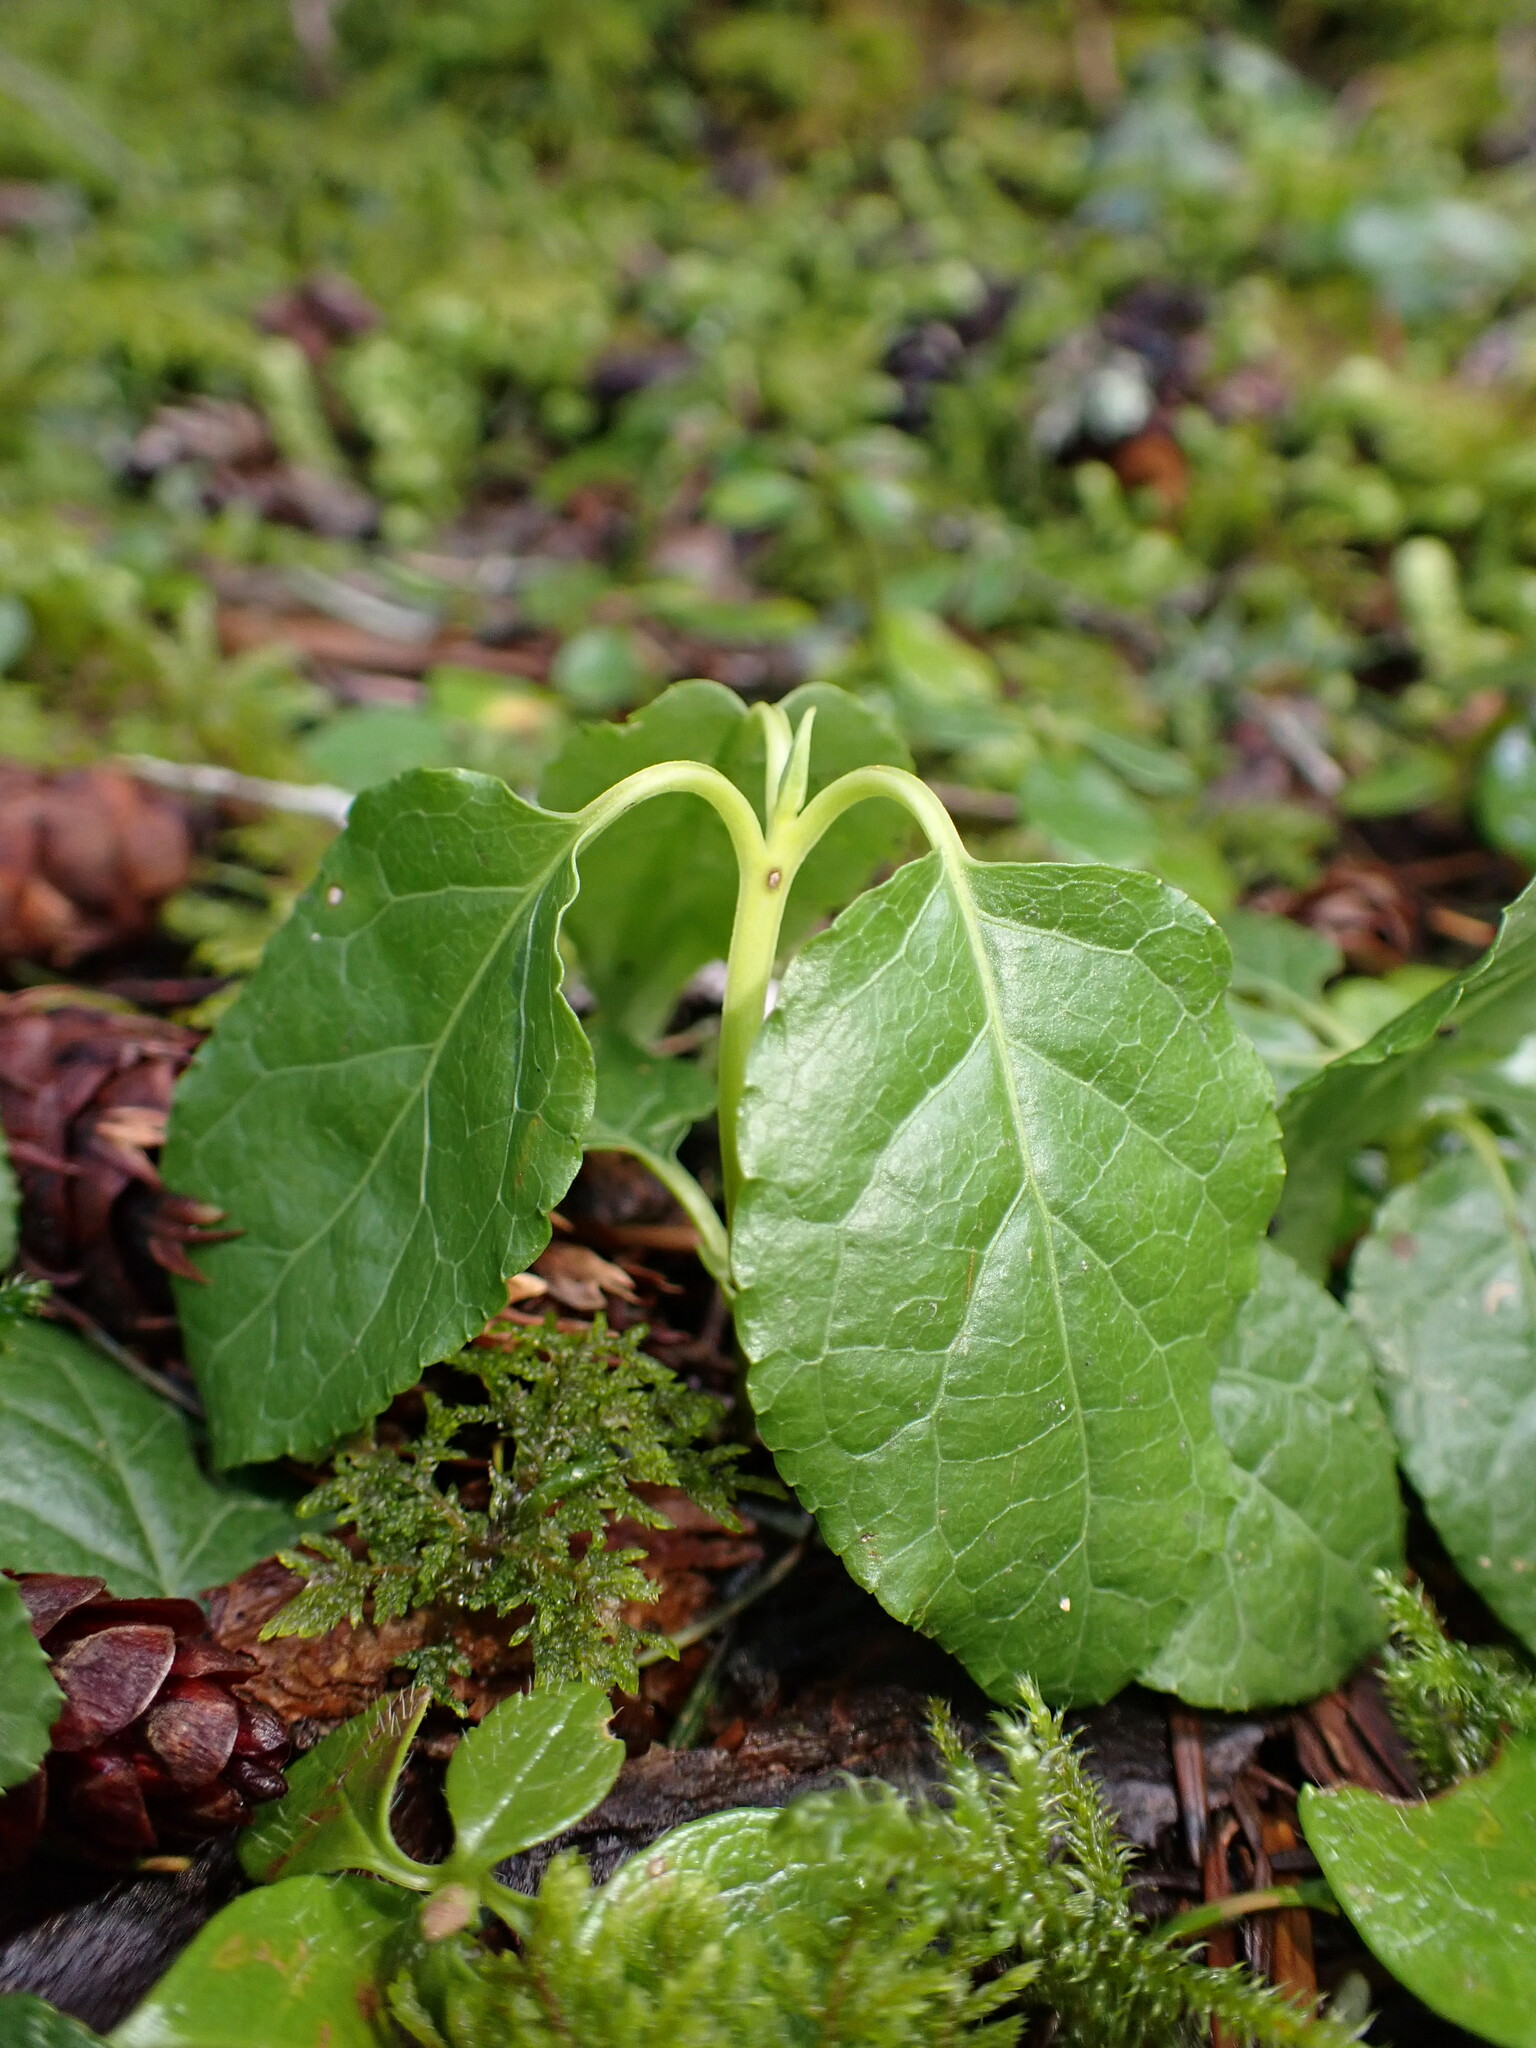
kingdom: Plantae
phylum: Tracheophyta
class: Magnoliopsida
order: Ericales
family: Ericaceae
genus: Orthilia
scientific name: Orthilia secunda
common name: One-sided orthilia
